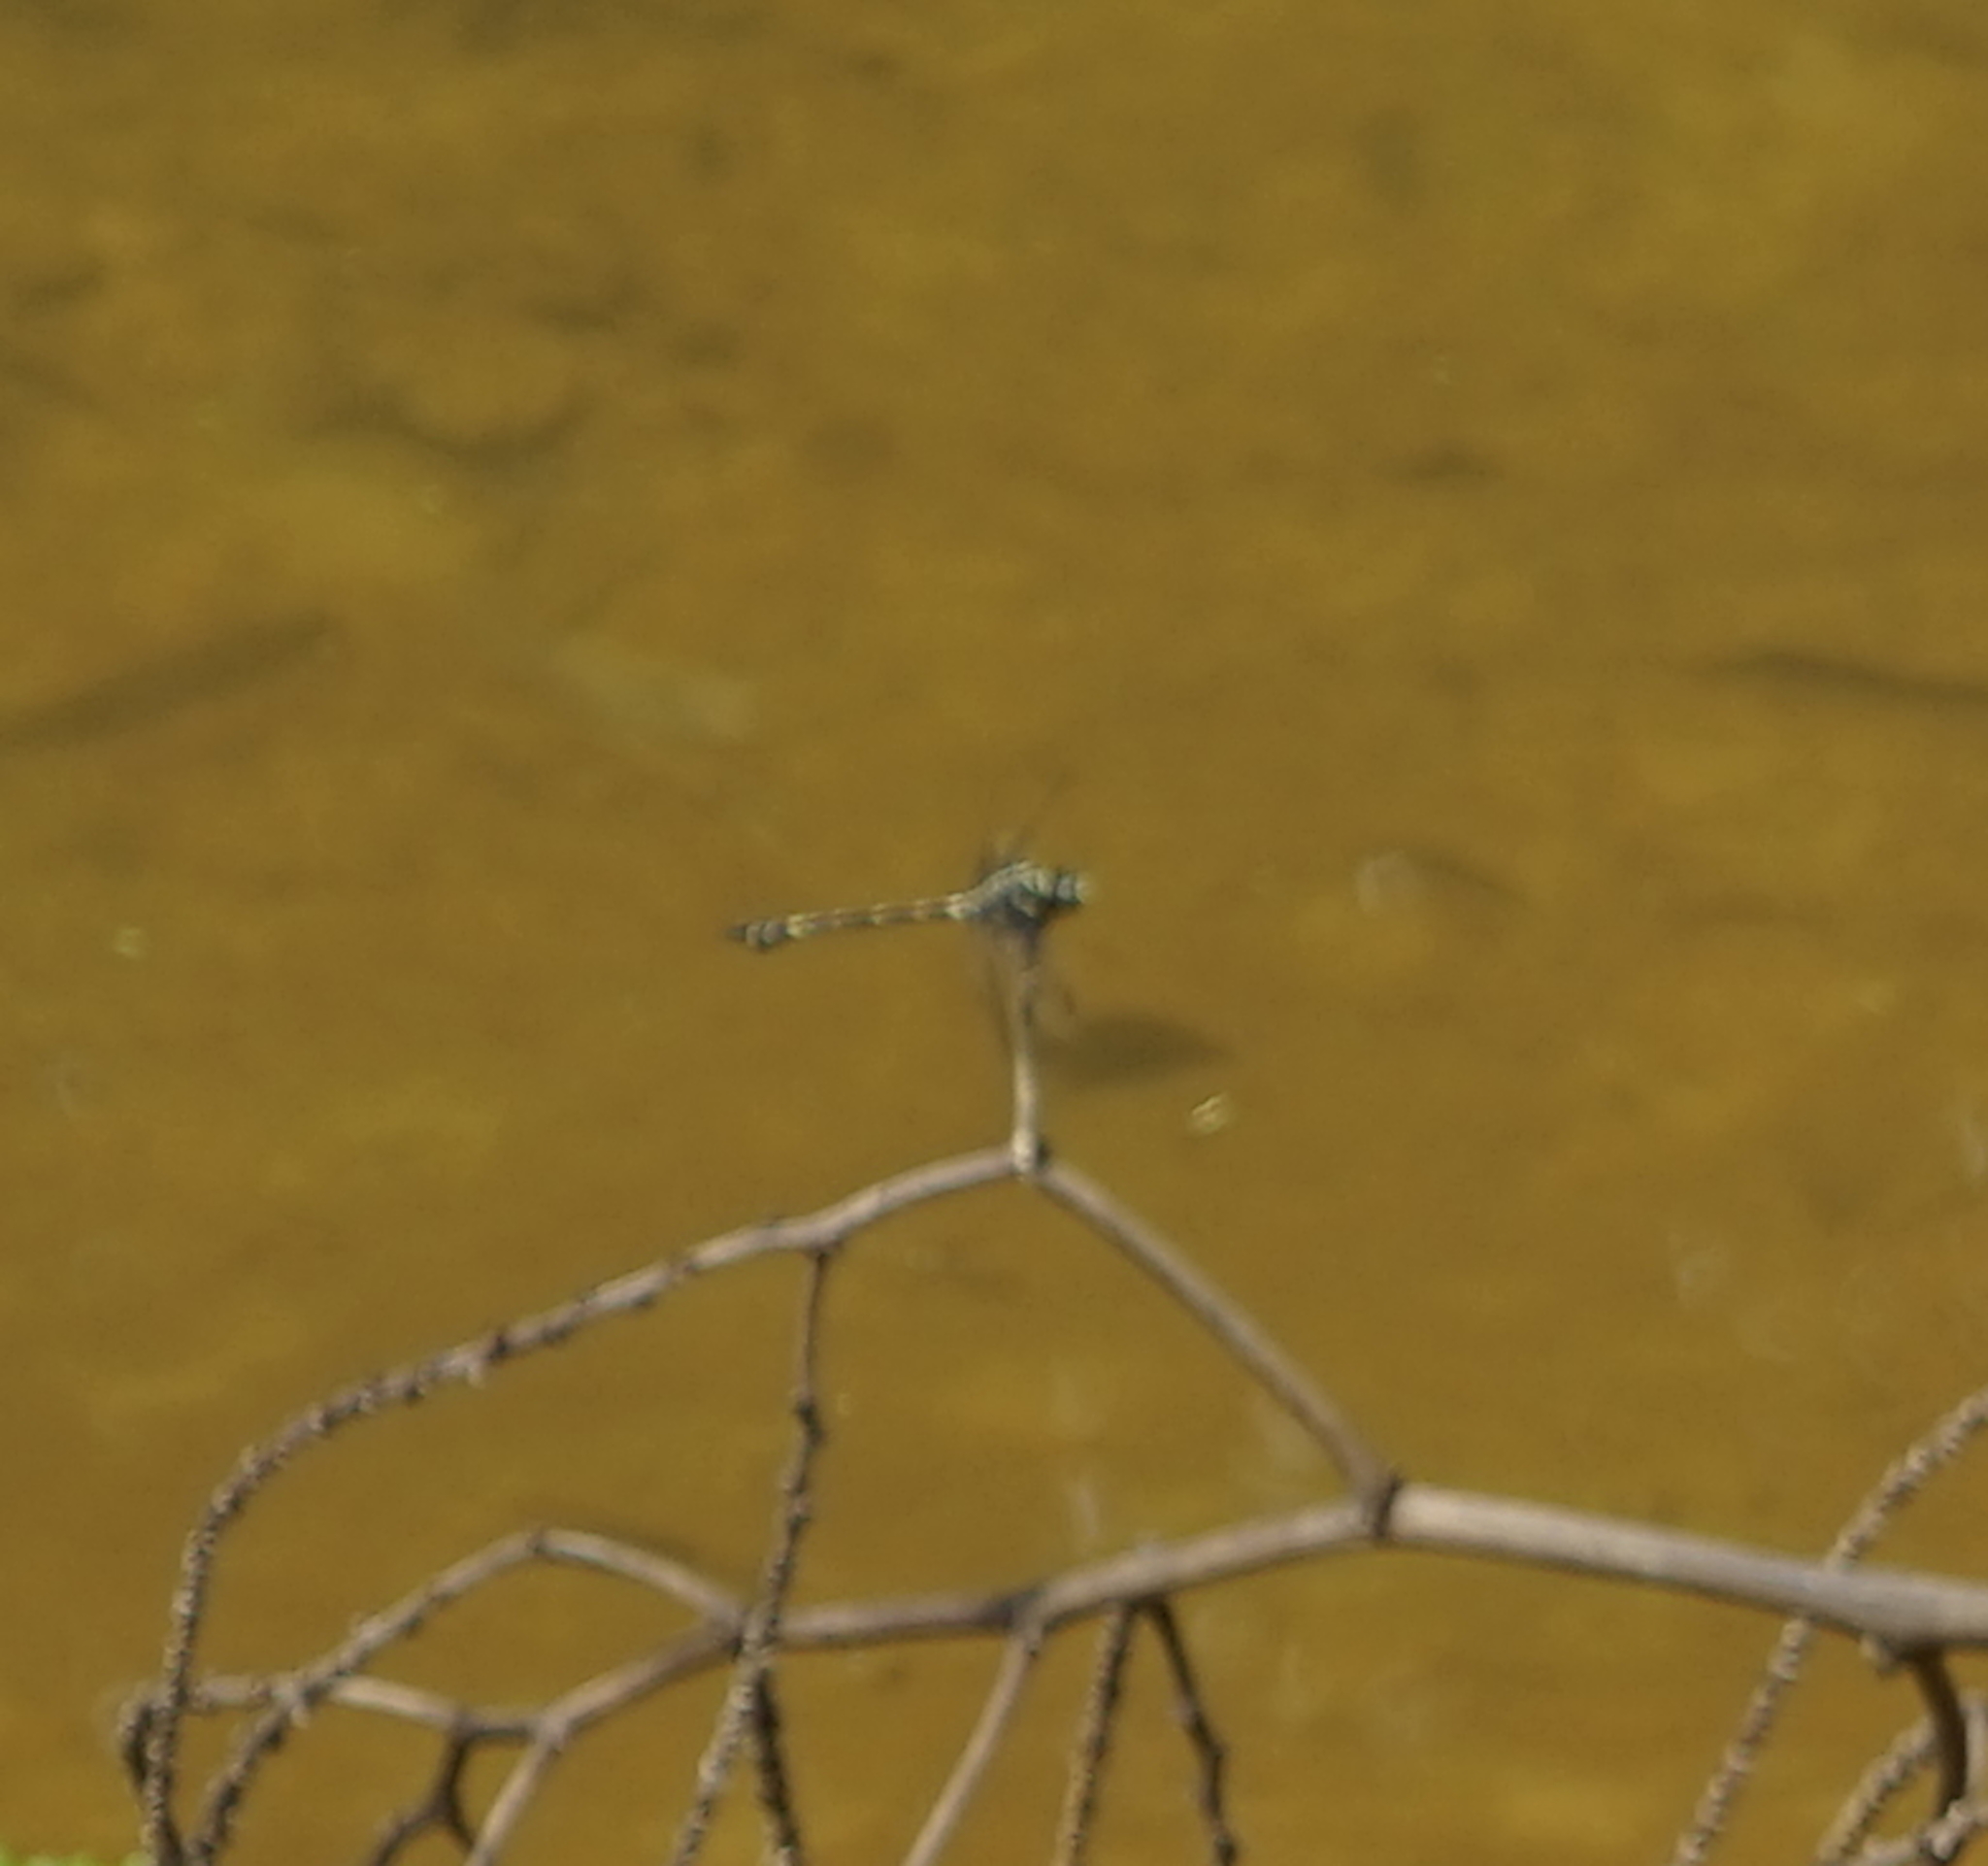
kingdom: Animalia
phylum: Arthropoda
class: Insecta
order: Odonata
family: Gomphidae
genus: Ictinogomphus
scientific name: Ictinogomphus decoratus
